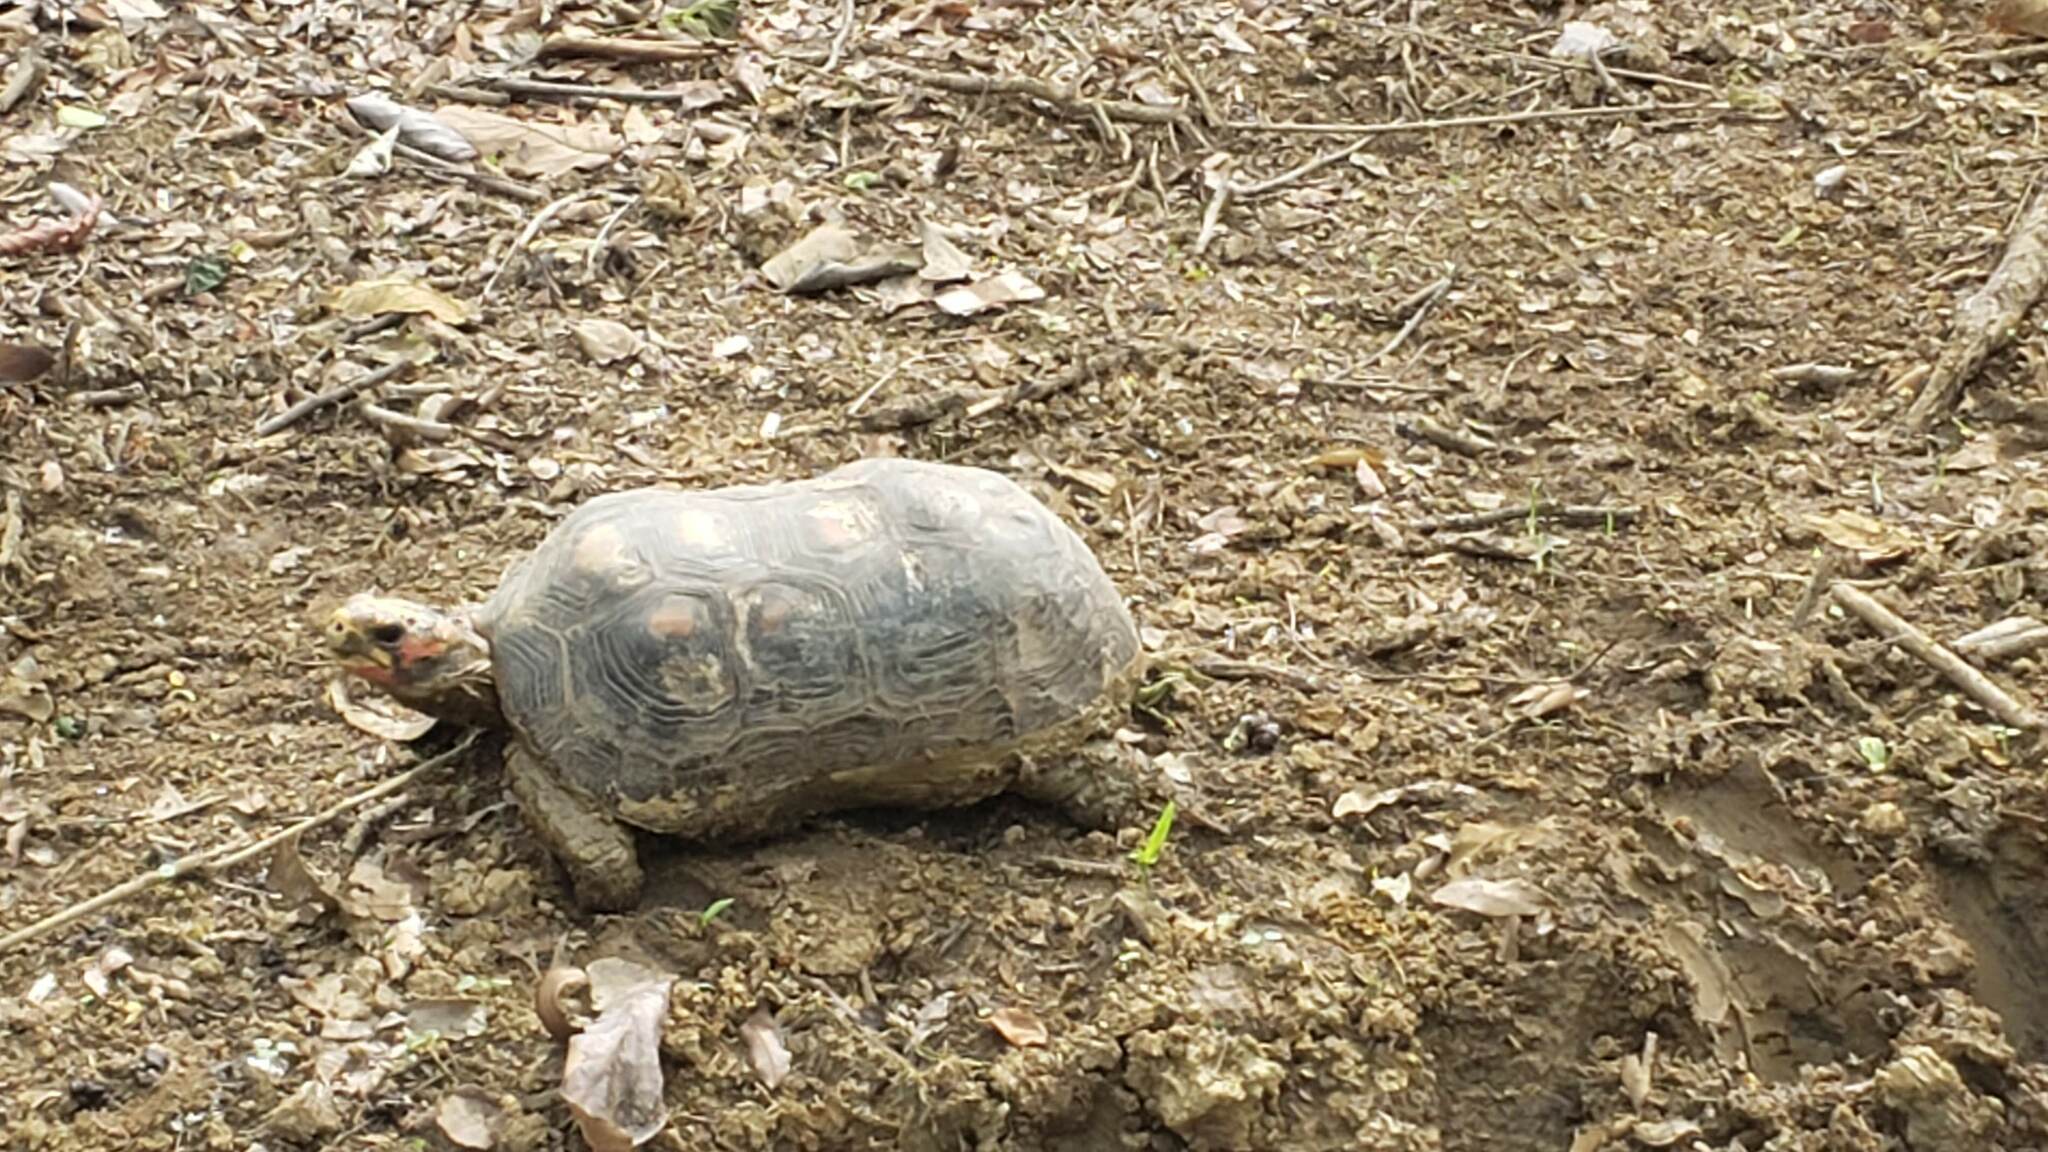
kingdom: Animalia
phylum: Chordata
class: Testudines
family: Testudinidae
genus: Chelonoidis
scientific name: Chelonoidis carbonarius
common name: Red-footed tortoise
